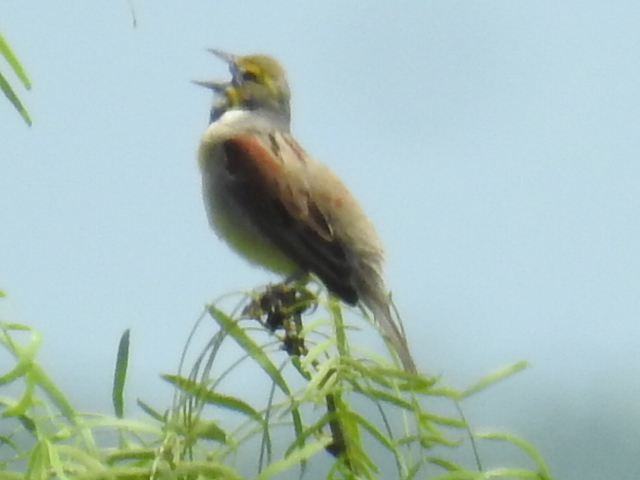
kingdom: Animalia
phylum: Chordata
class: Aves
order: Passeriformes
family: Cardinalidae
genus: Spiza
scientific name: Spiza americana
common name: Dickcissel
